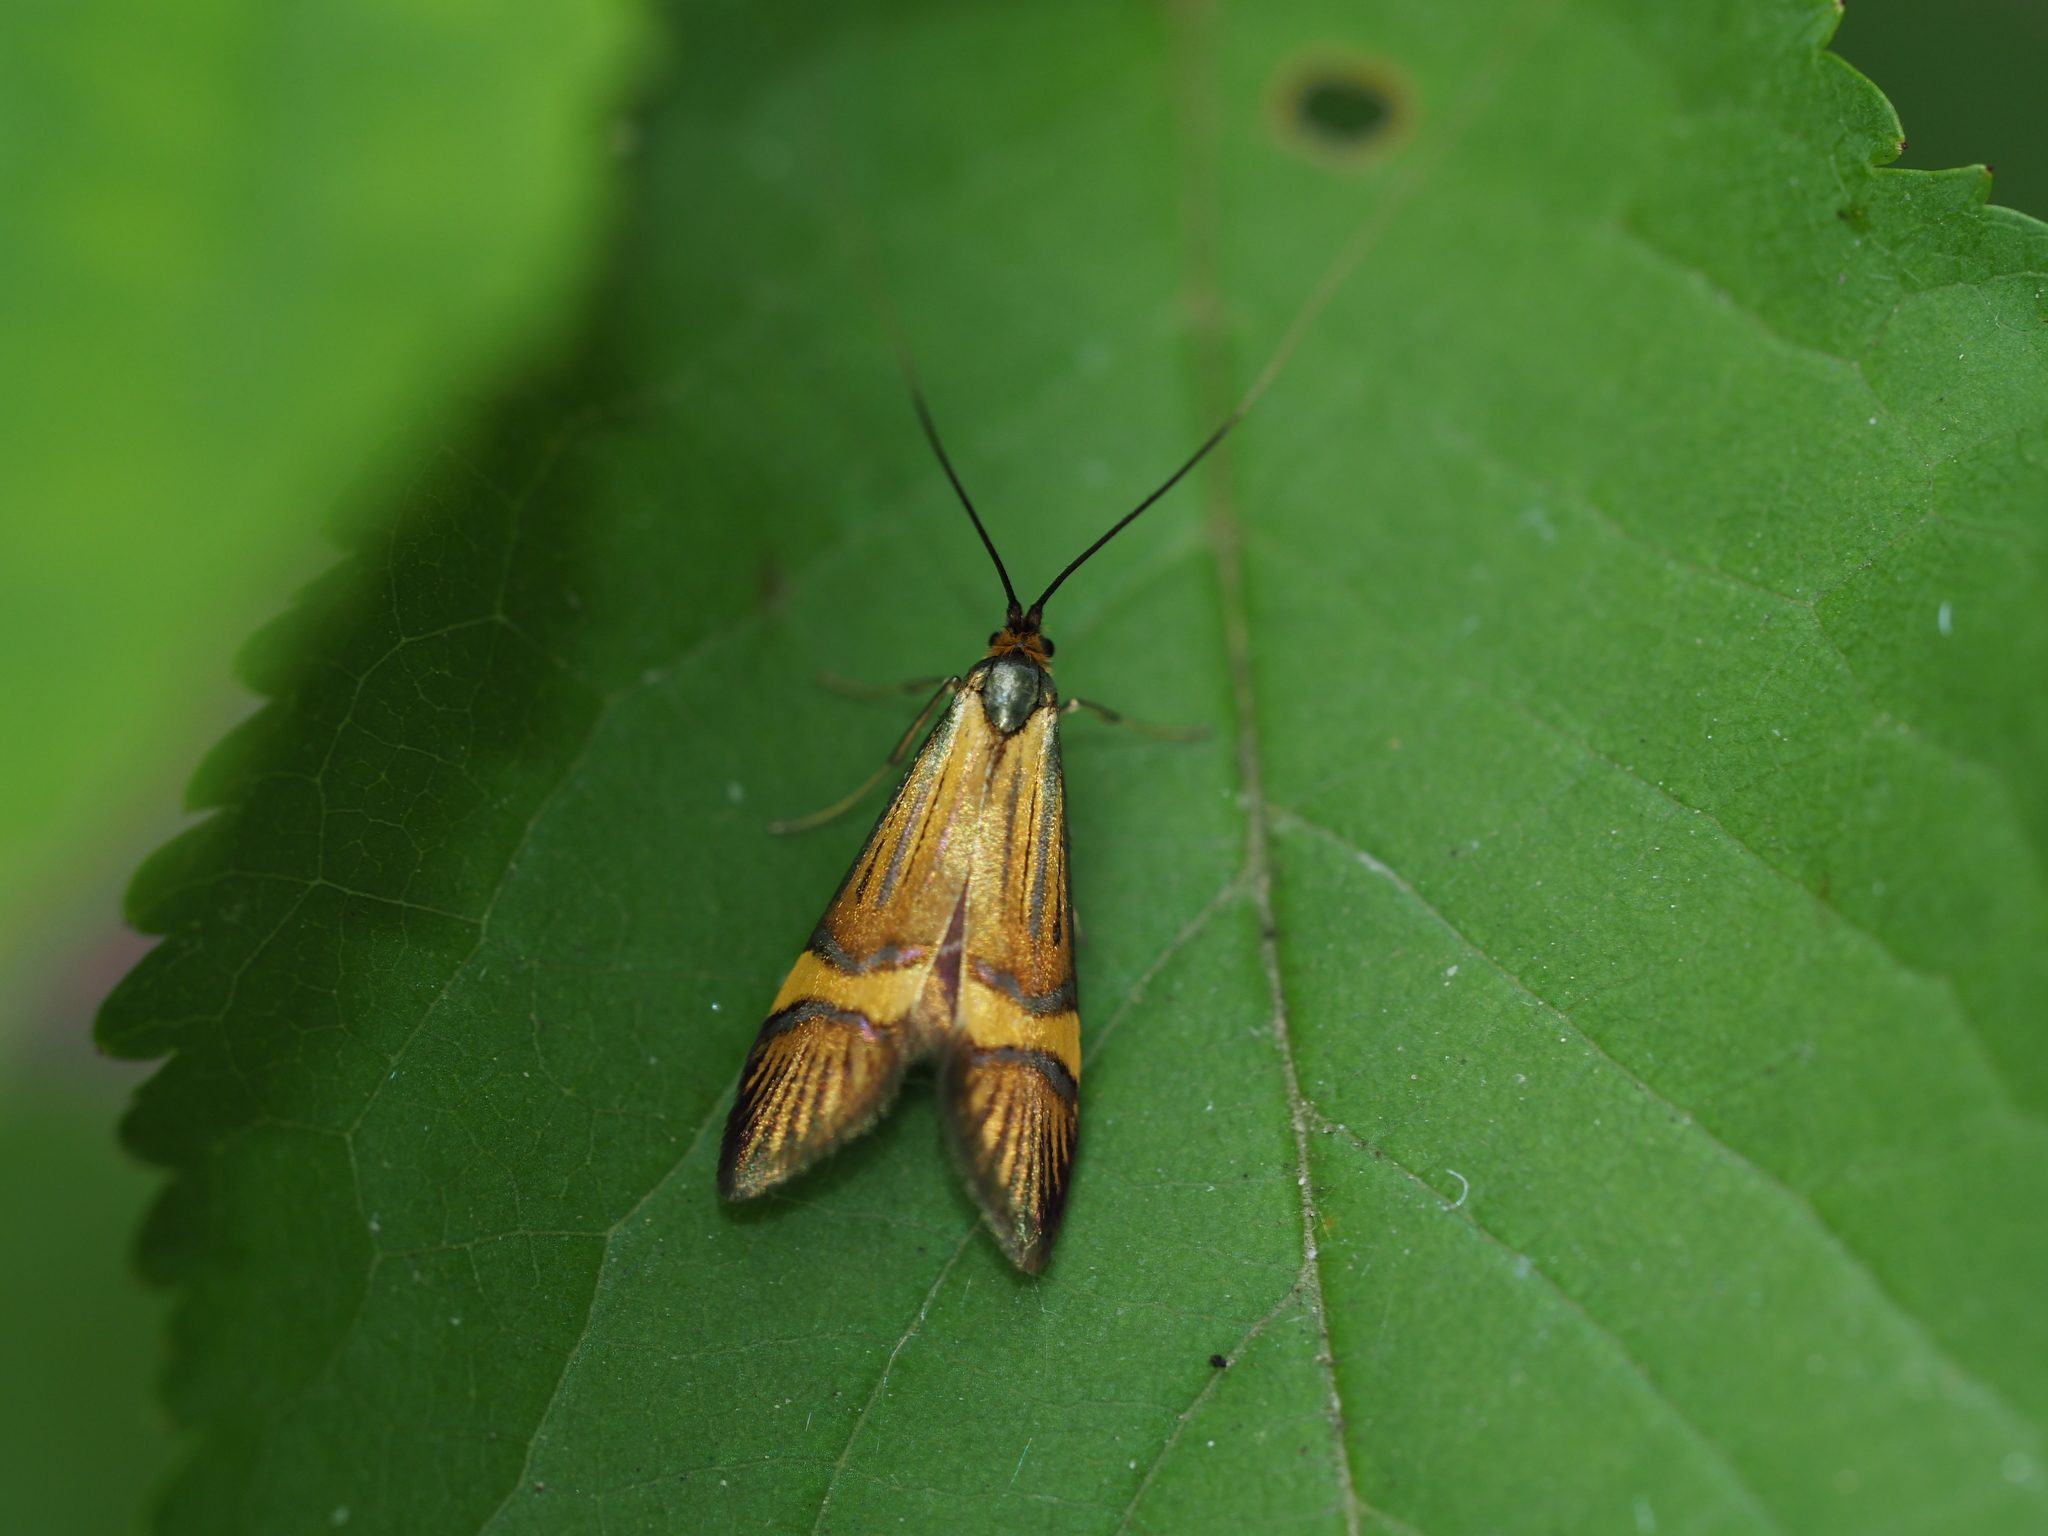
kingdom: Animalia
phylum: Arthropoda
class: Insecta
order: Lepidoptera
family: Adelidae
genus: Nemophora
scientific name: Nemophora
